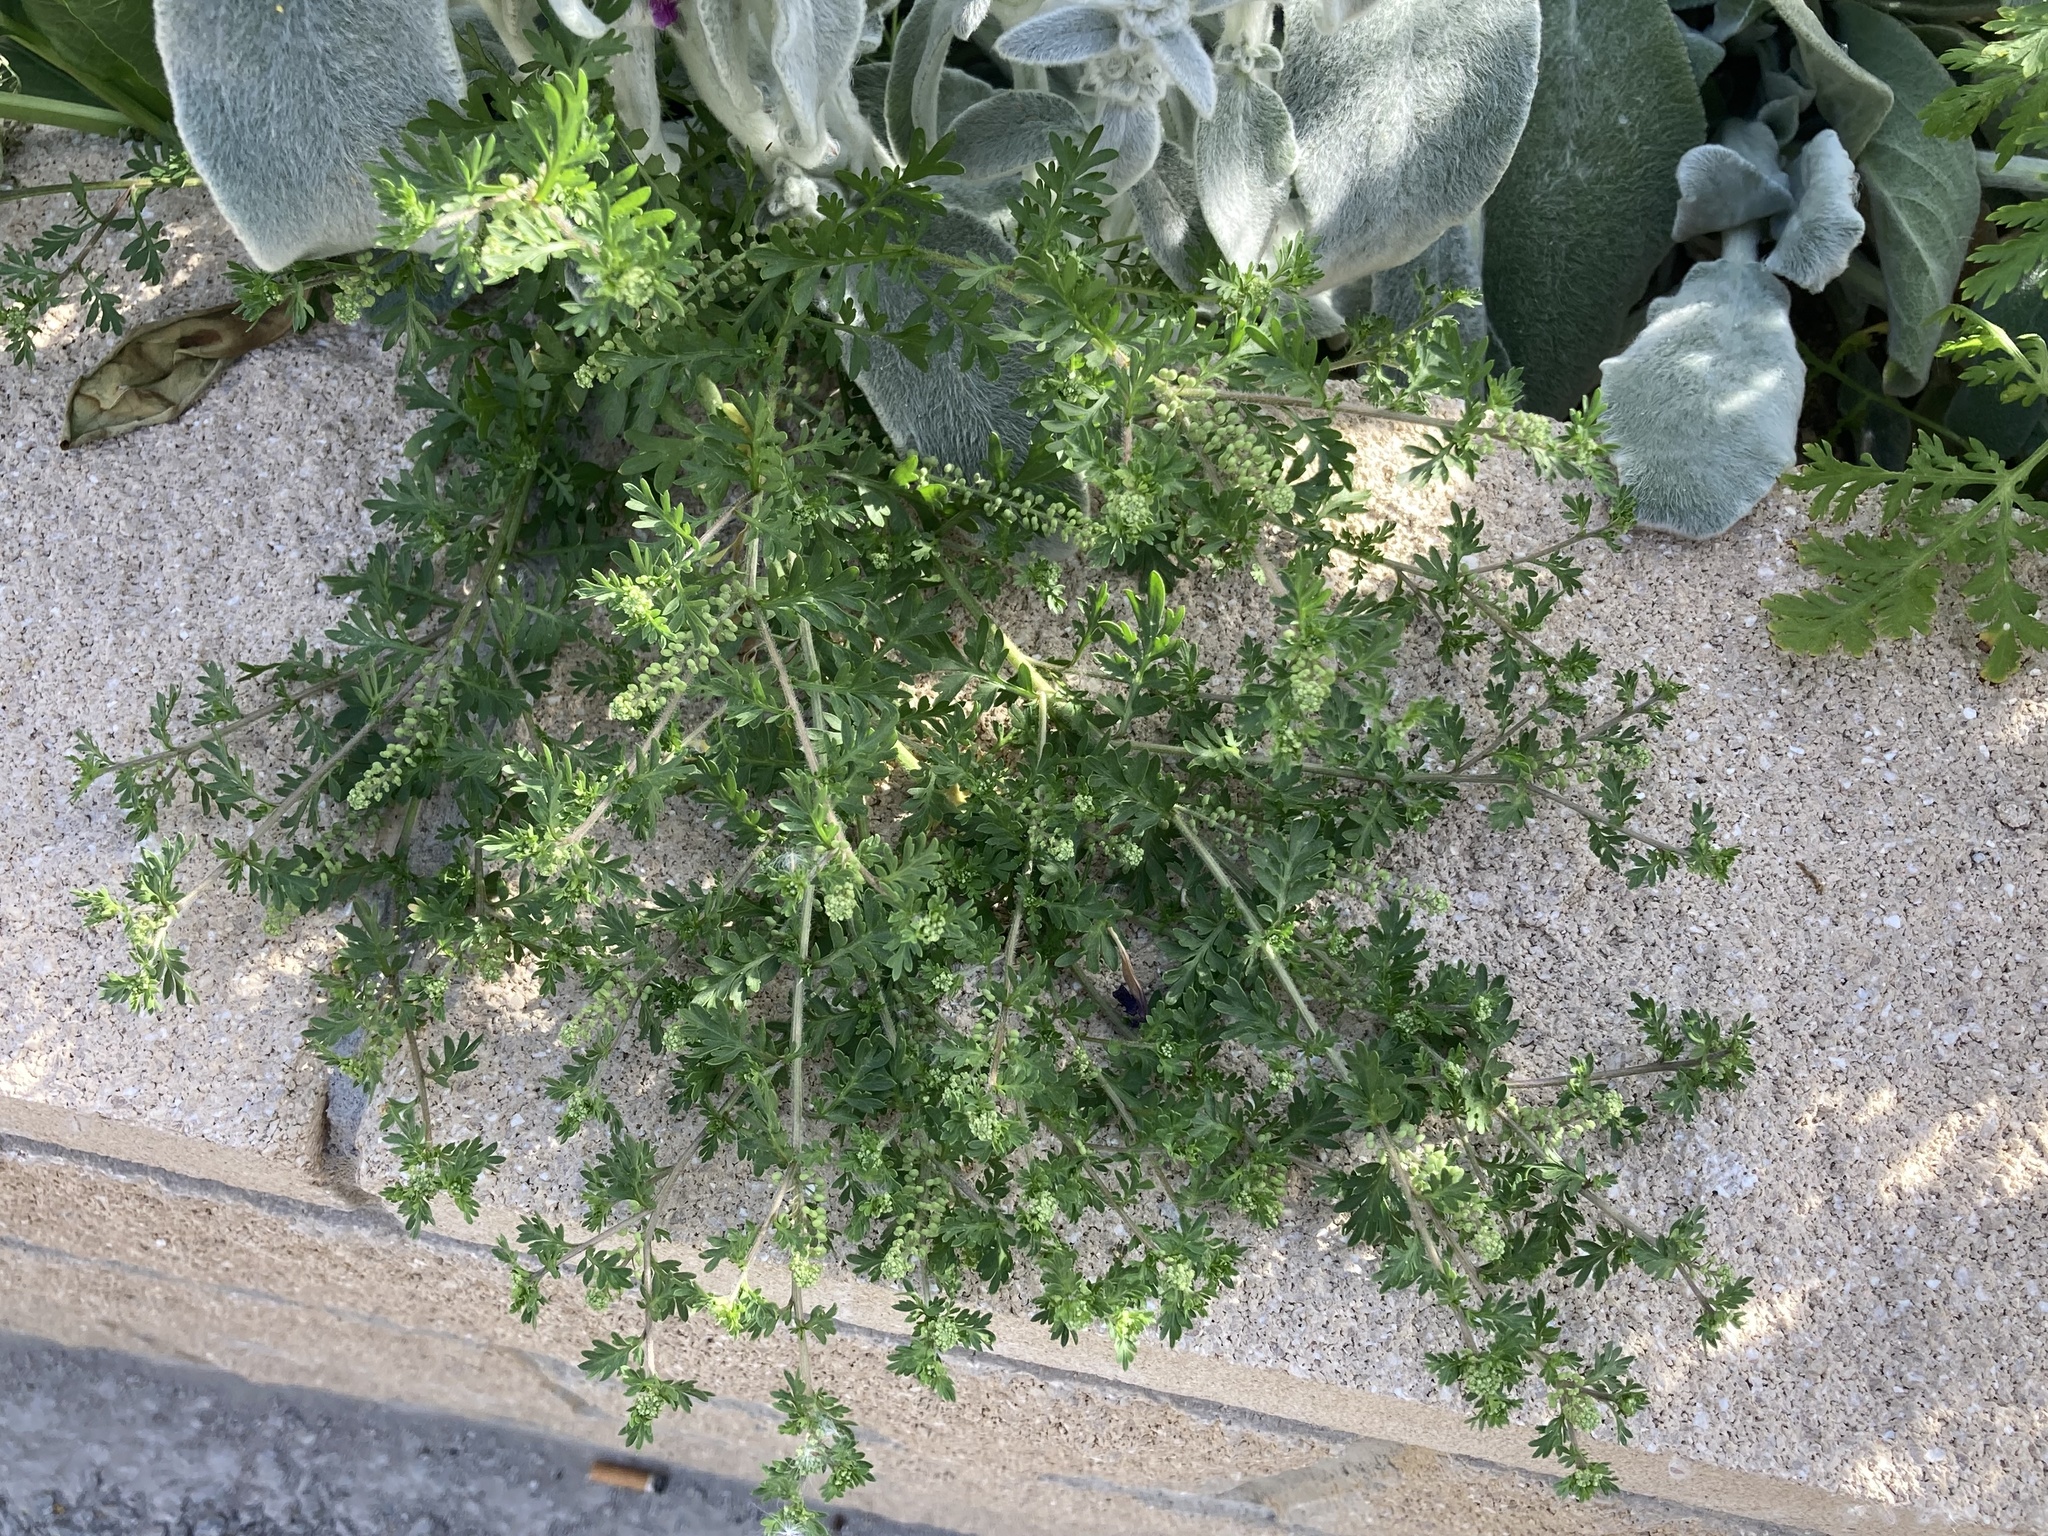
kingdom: Plantae
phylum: Tracheophyta
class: Magnoliopsida
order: Brassicales
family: Brassicaceae
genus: Lepidium
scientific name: Lepidium didymum
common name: Lesser swinecress
